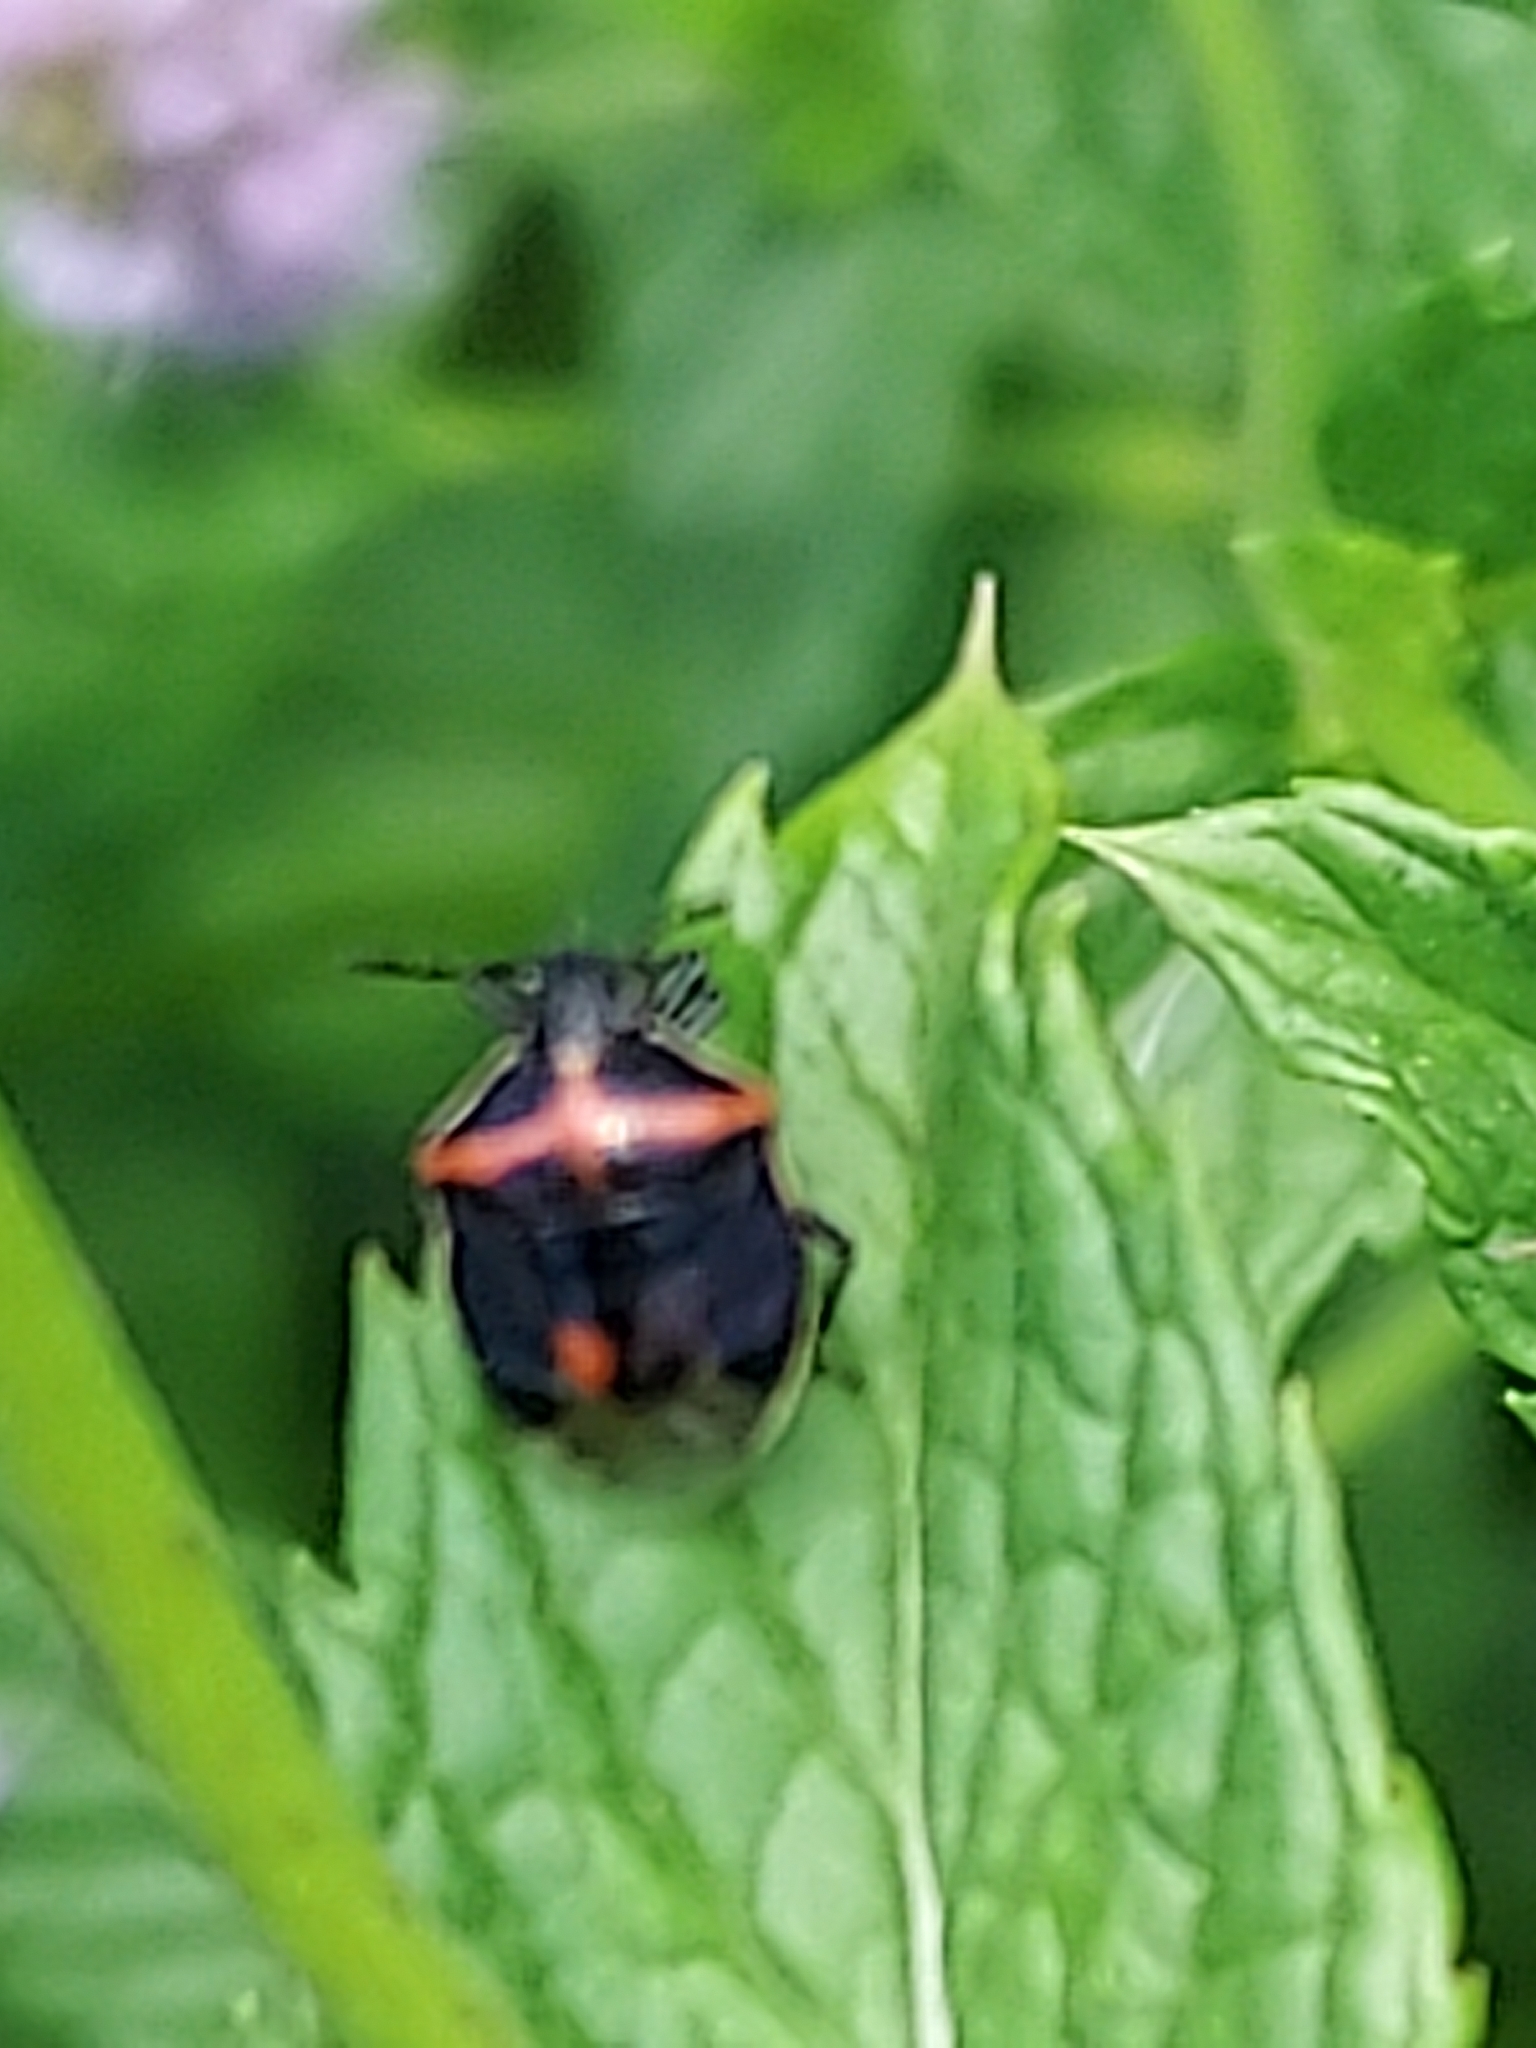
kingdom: Animalia
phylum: Arthropoda
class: Insecta
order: Hemiptera
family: Pentatomidae
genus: Cosmopepla
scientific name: Cosmopepla lintneriana
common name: Twice-stabbed stink bug
